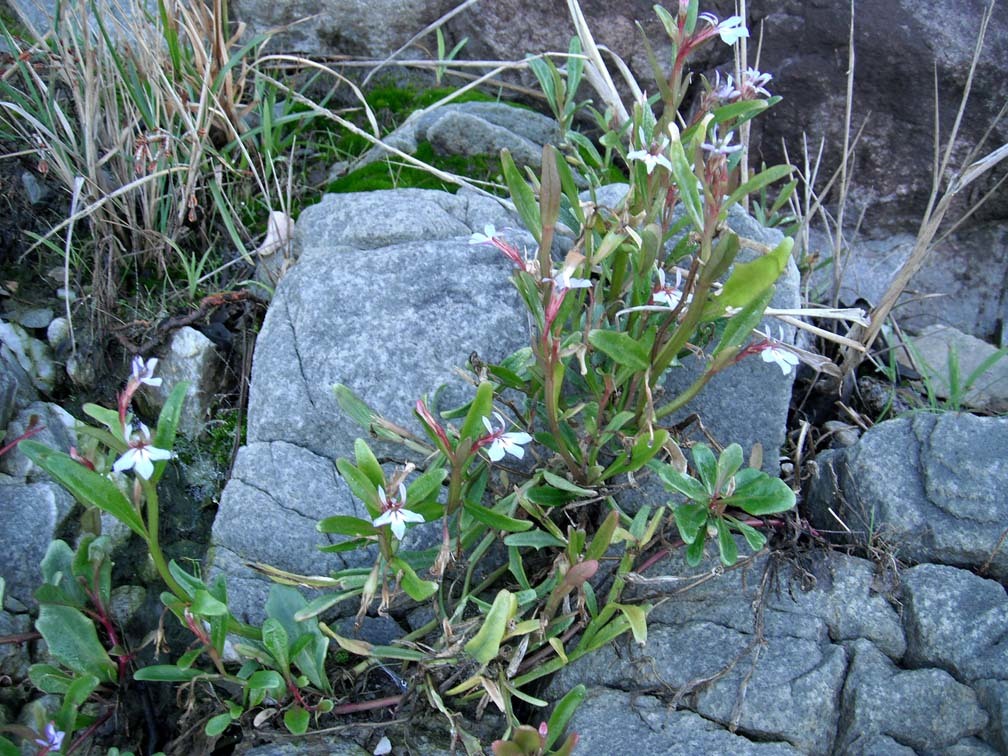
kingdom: Plantae
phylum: Tracheophyta
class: Magnoliopsida
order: Asterales
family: Campanulaceae
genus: Lobelia
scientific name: Lobelia anceps
